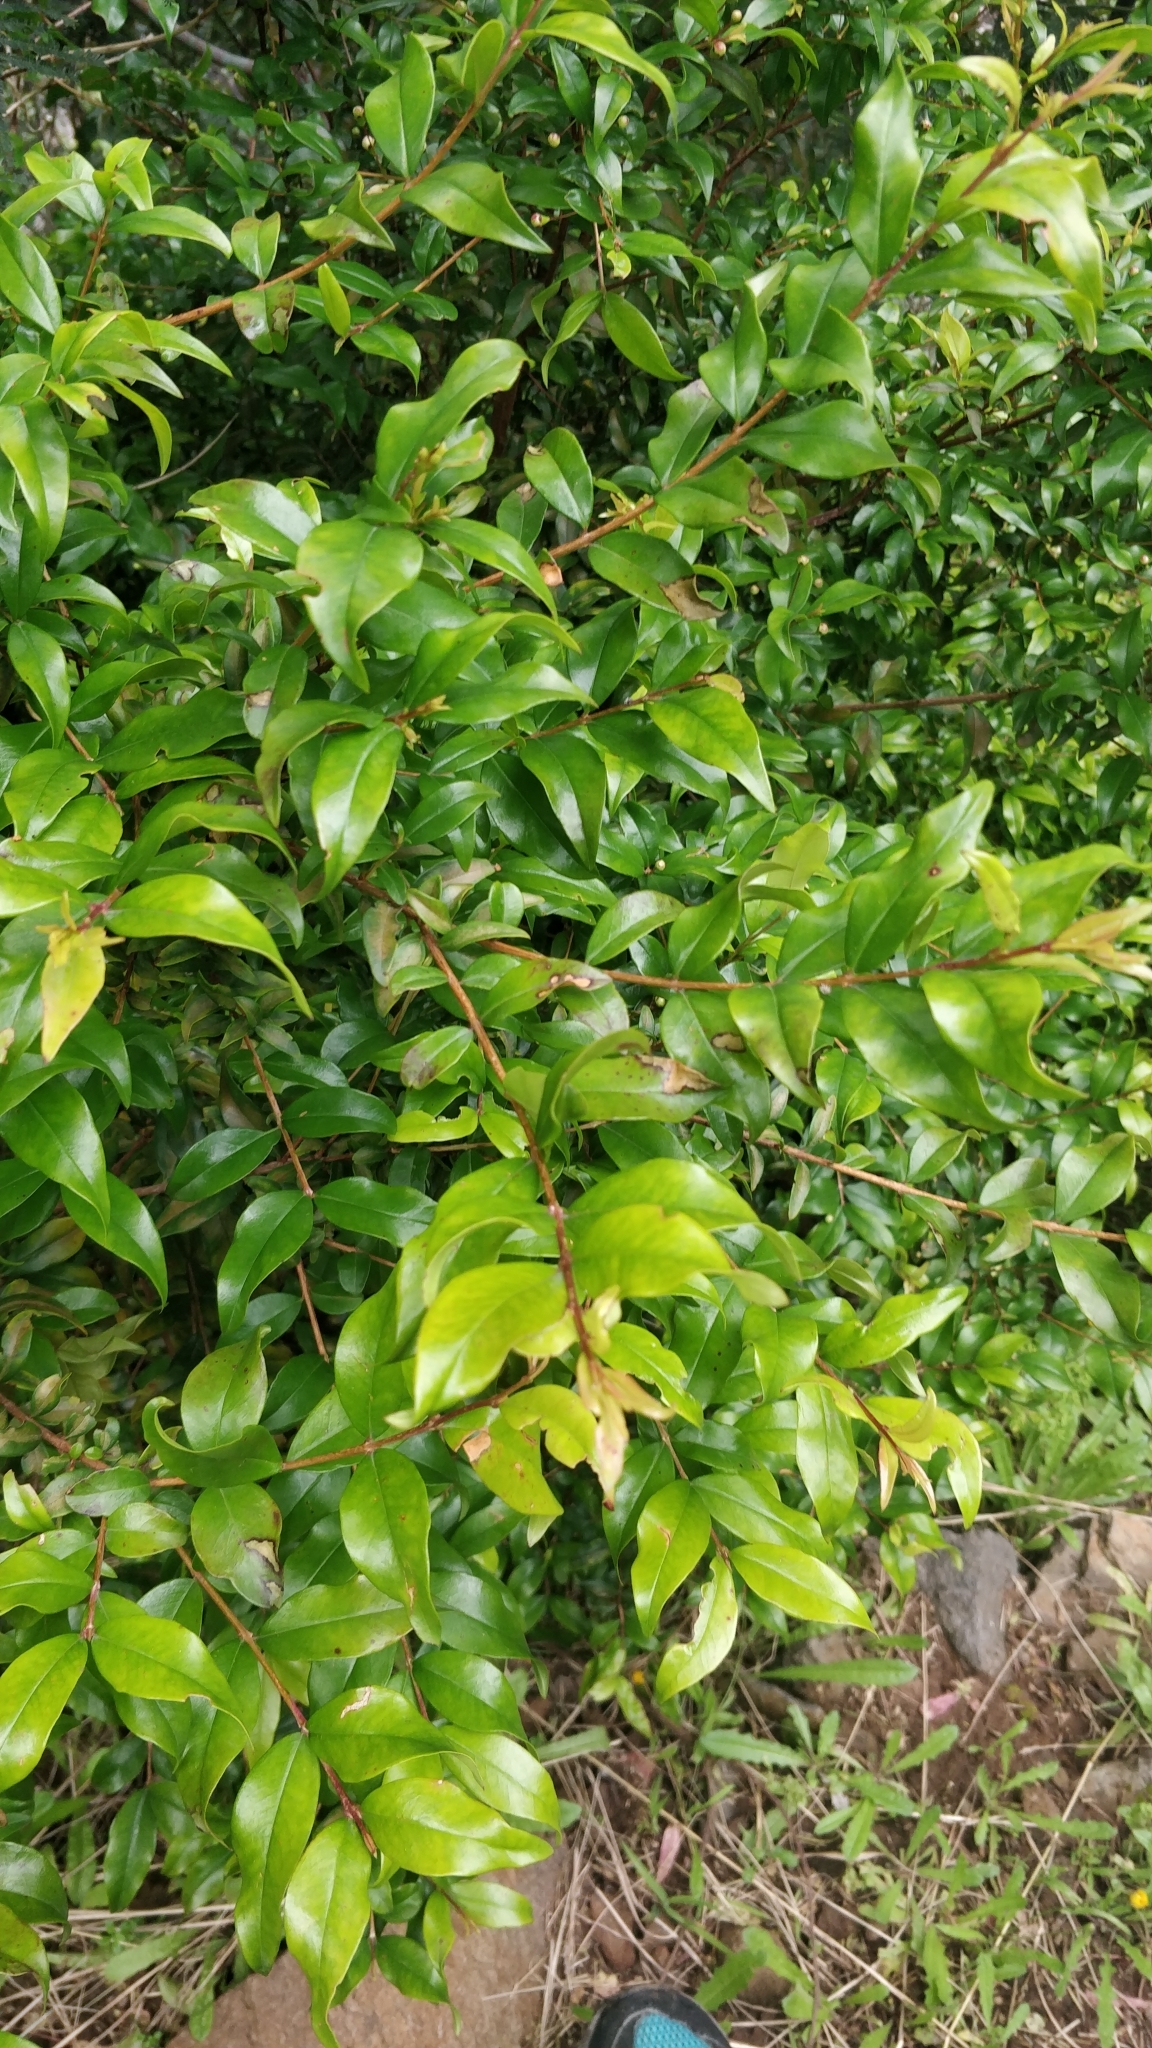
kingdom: Plantae
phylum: Tracheophyta
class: Magnoliopsida
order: Myrtales
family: Myrtaceae
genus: Myrtus
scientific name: Myrtus communis
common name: Myrtle
